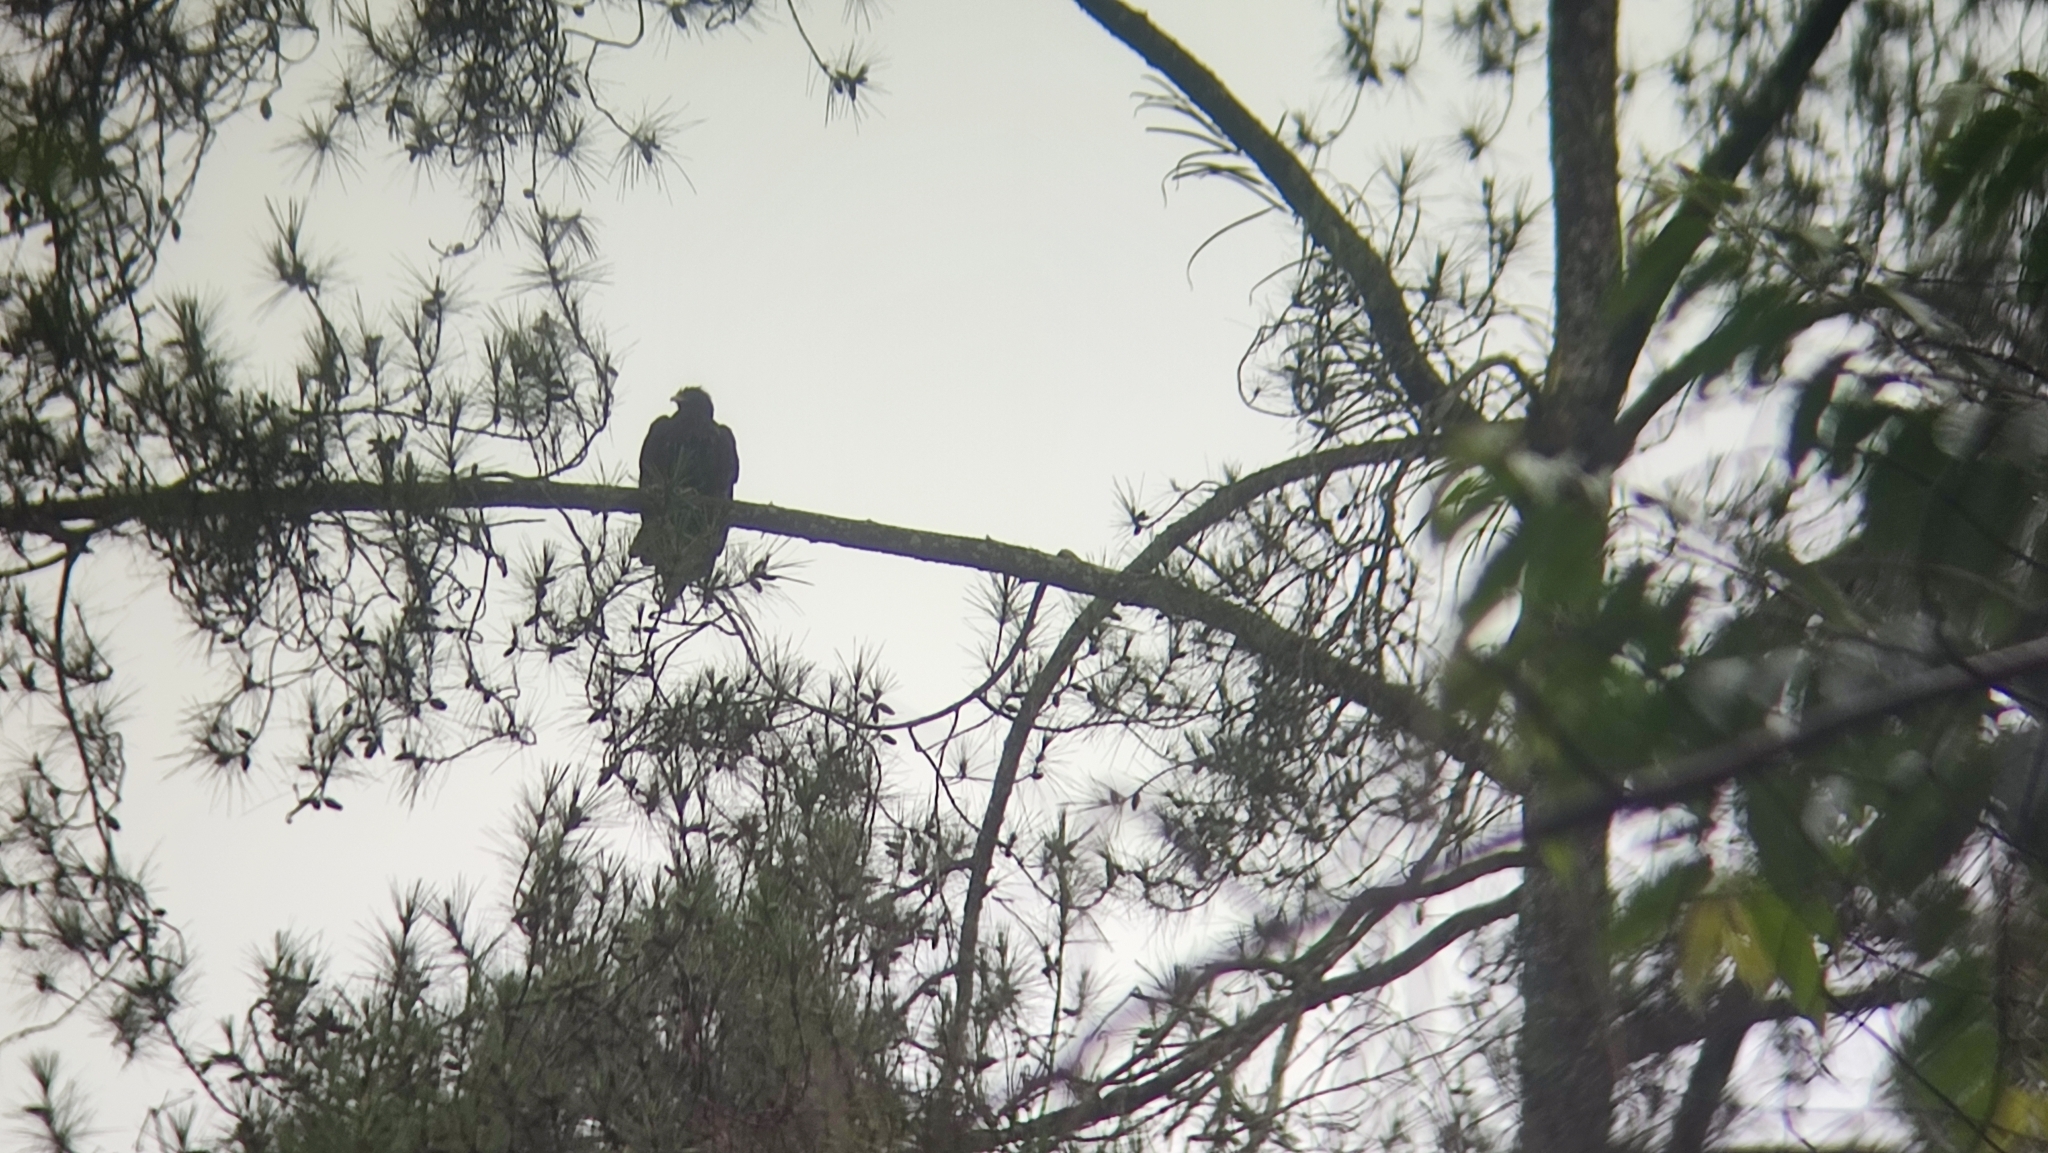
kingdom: Animalia
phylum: Chordata
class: Aves
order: Accipitriformes
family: Accipitridae
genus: Ictinaetus
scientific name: Ictinaetus malayensis
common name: Black eagle
